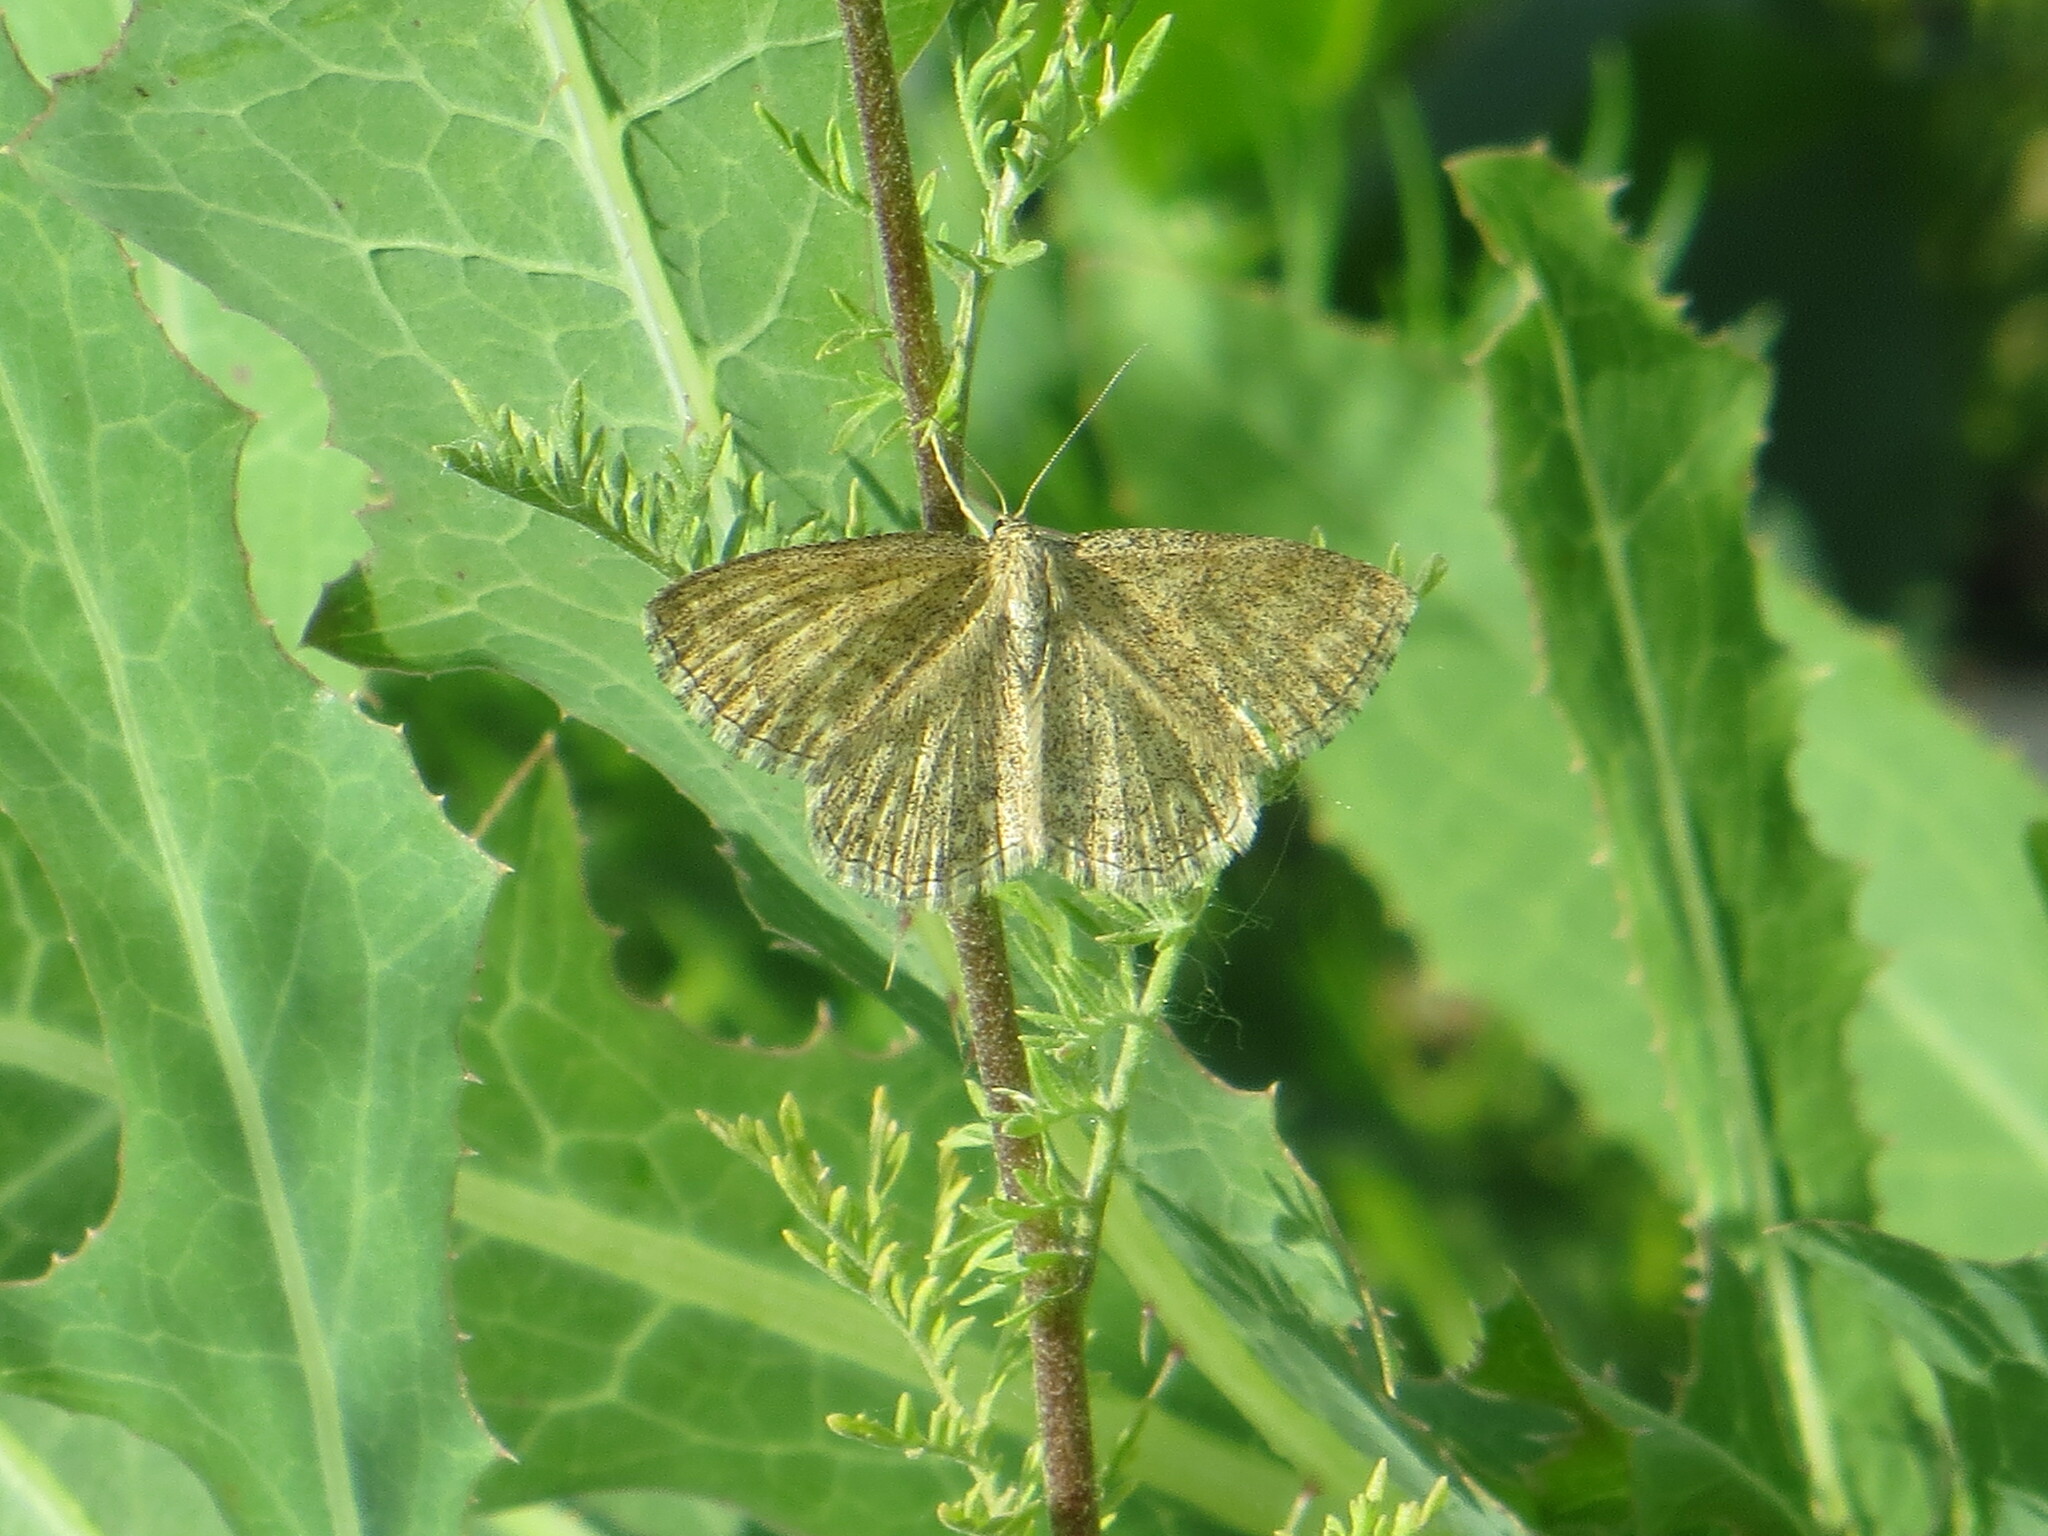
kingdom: Animalia
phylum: Arthropoda
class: Insecta
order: Lepidoptera
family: Geometridae
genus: Scopula
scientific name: Scopula immorata
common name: Lewes wave
